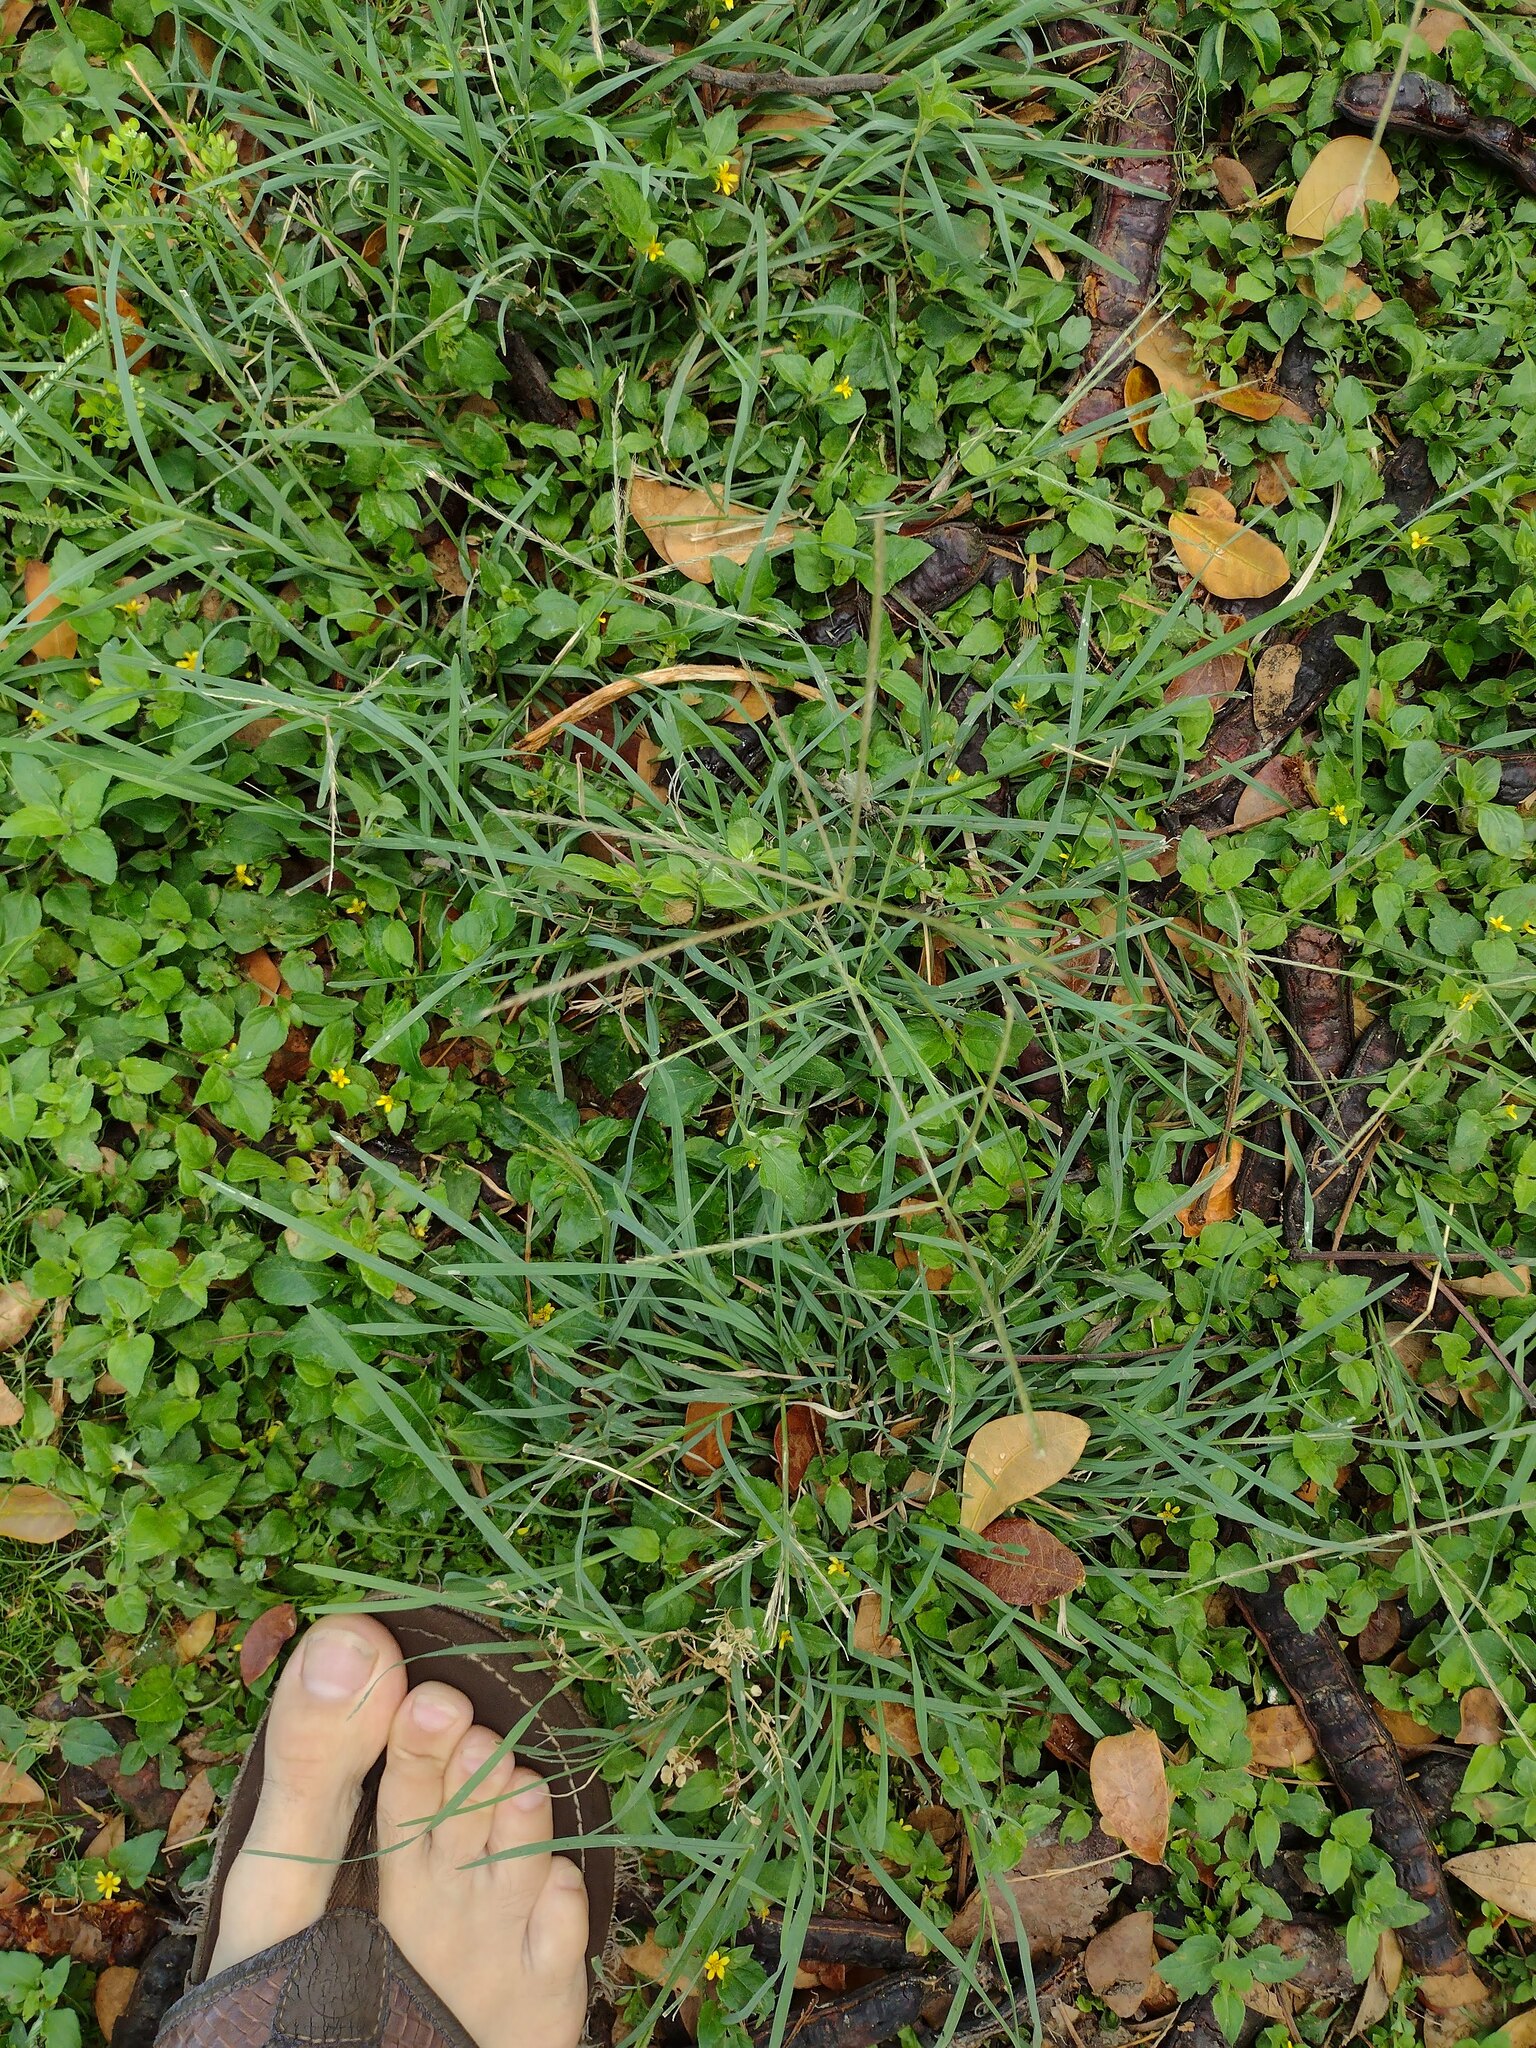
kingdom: Plantae
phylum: Tracheophyta
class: Liliopsida
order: Poales
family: Poaceae
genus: Chloris
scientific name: Chloris divaricata
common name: Spreading windmill grass
